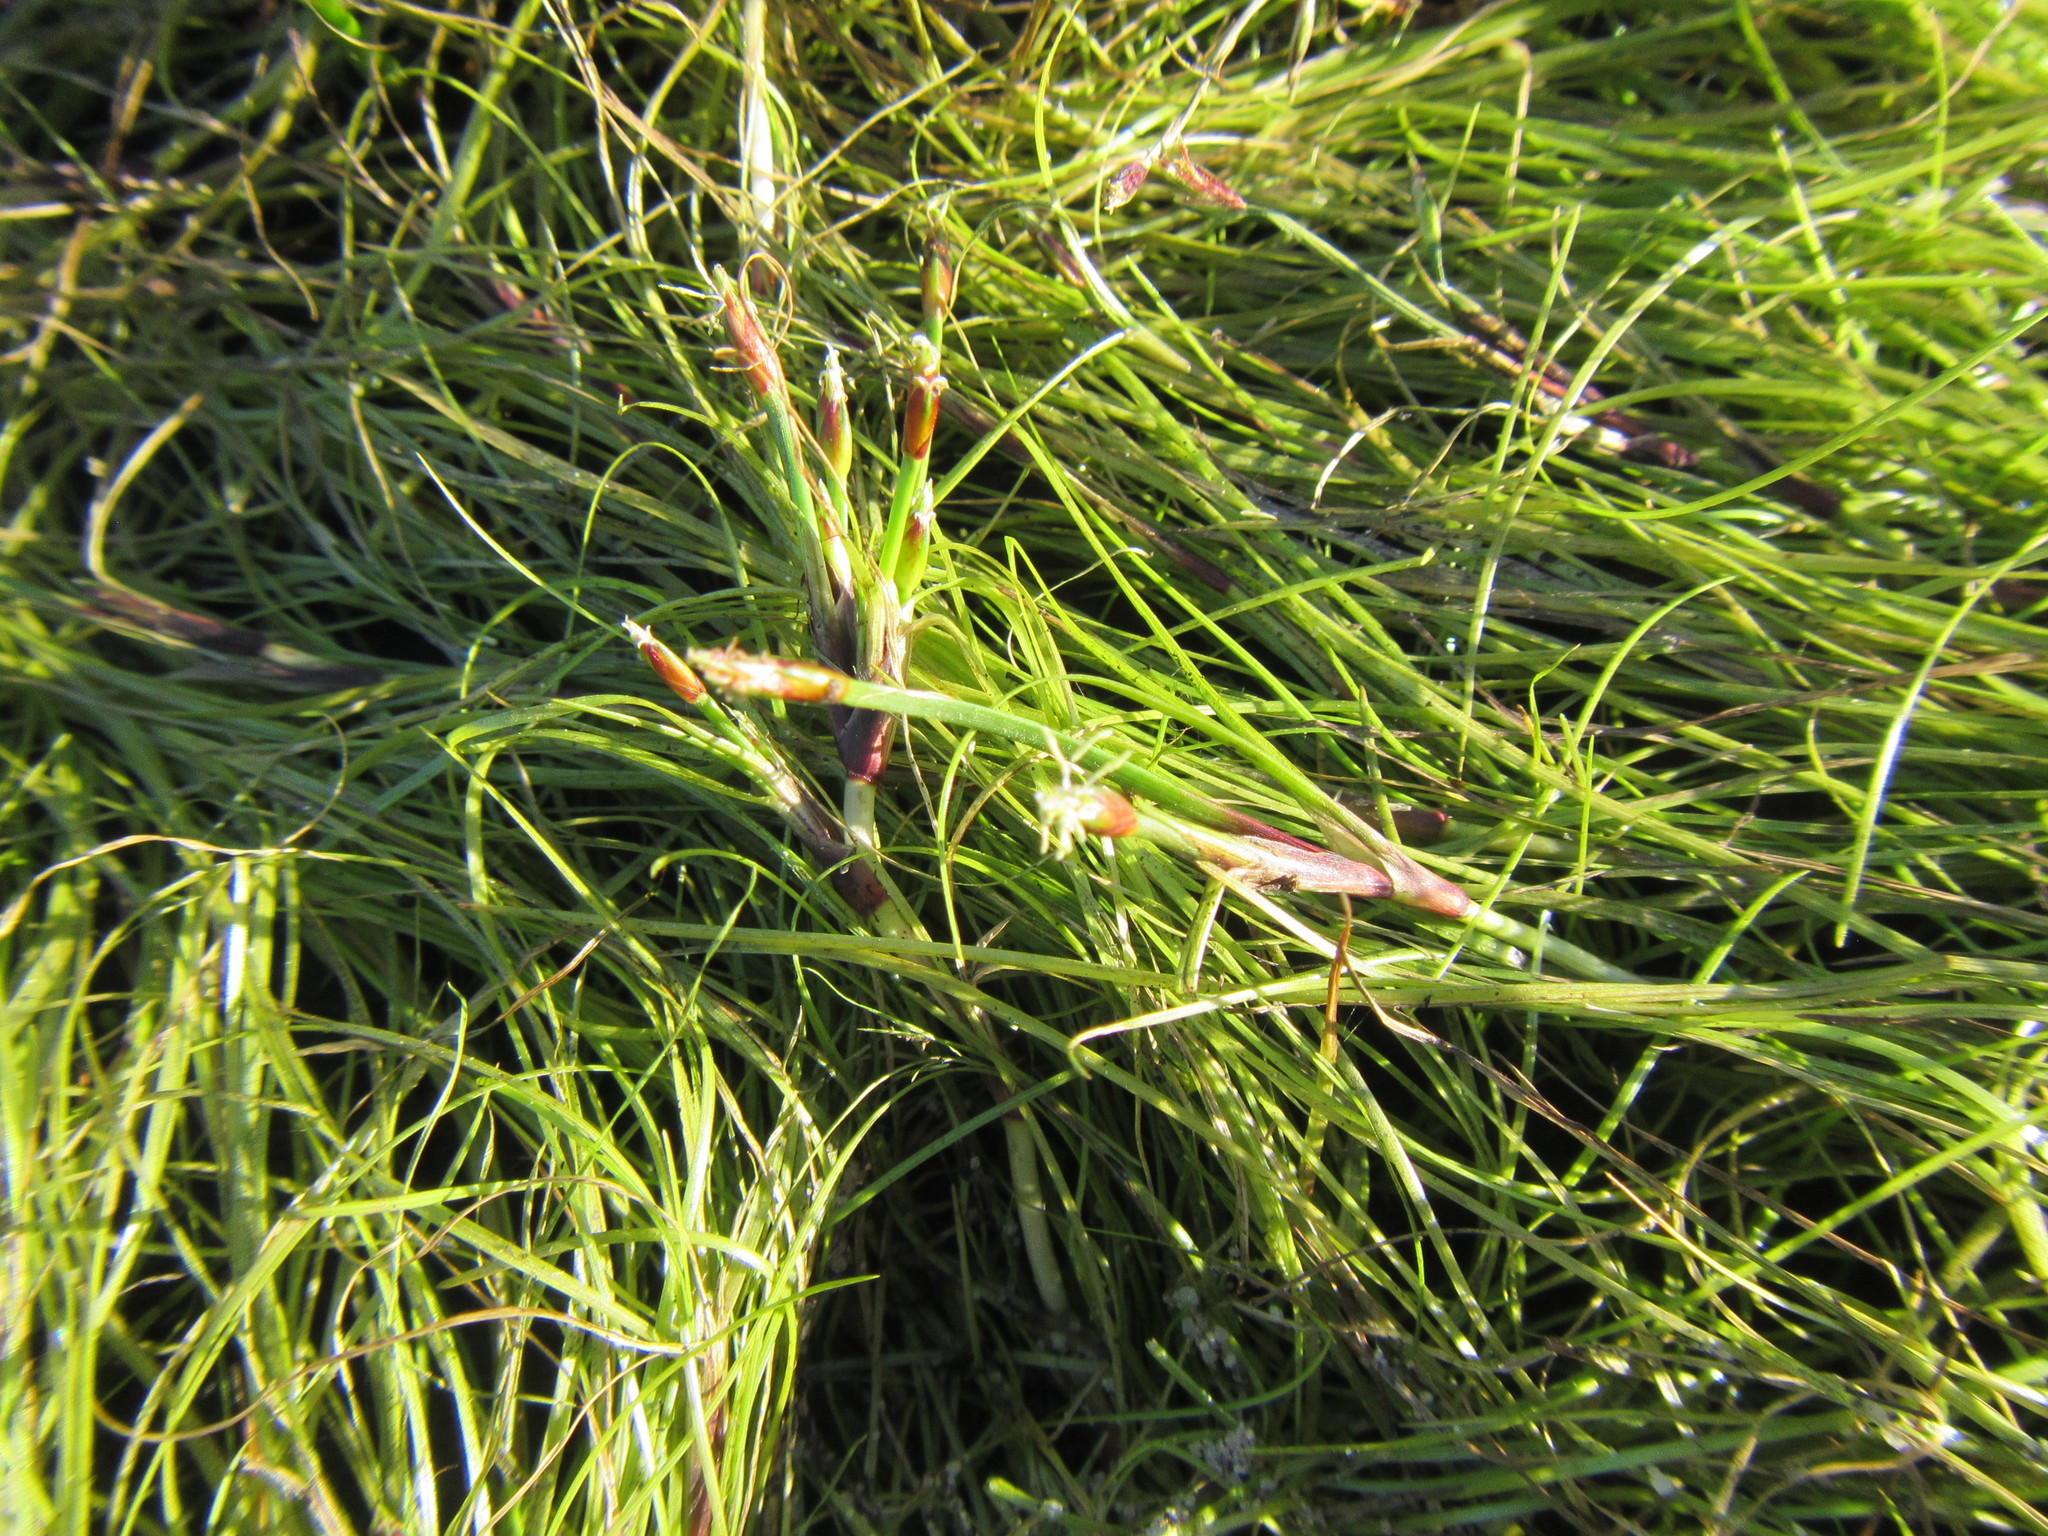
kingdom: Plantae
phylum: Tracheophyta
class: Liliopsida
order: Poales
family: Cyperaceae
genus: Isolepis
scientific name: Isolepis striata
